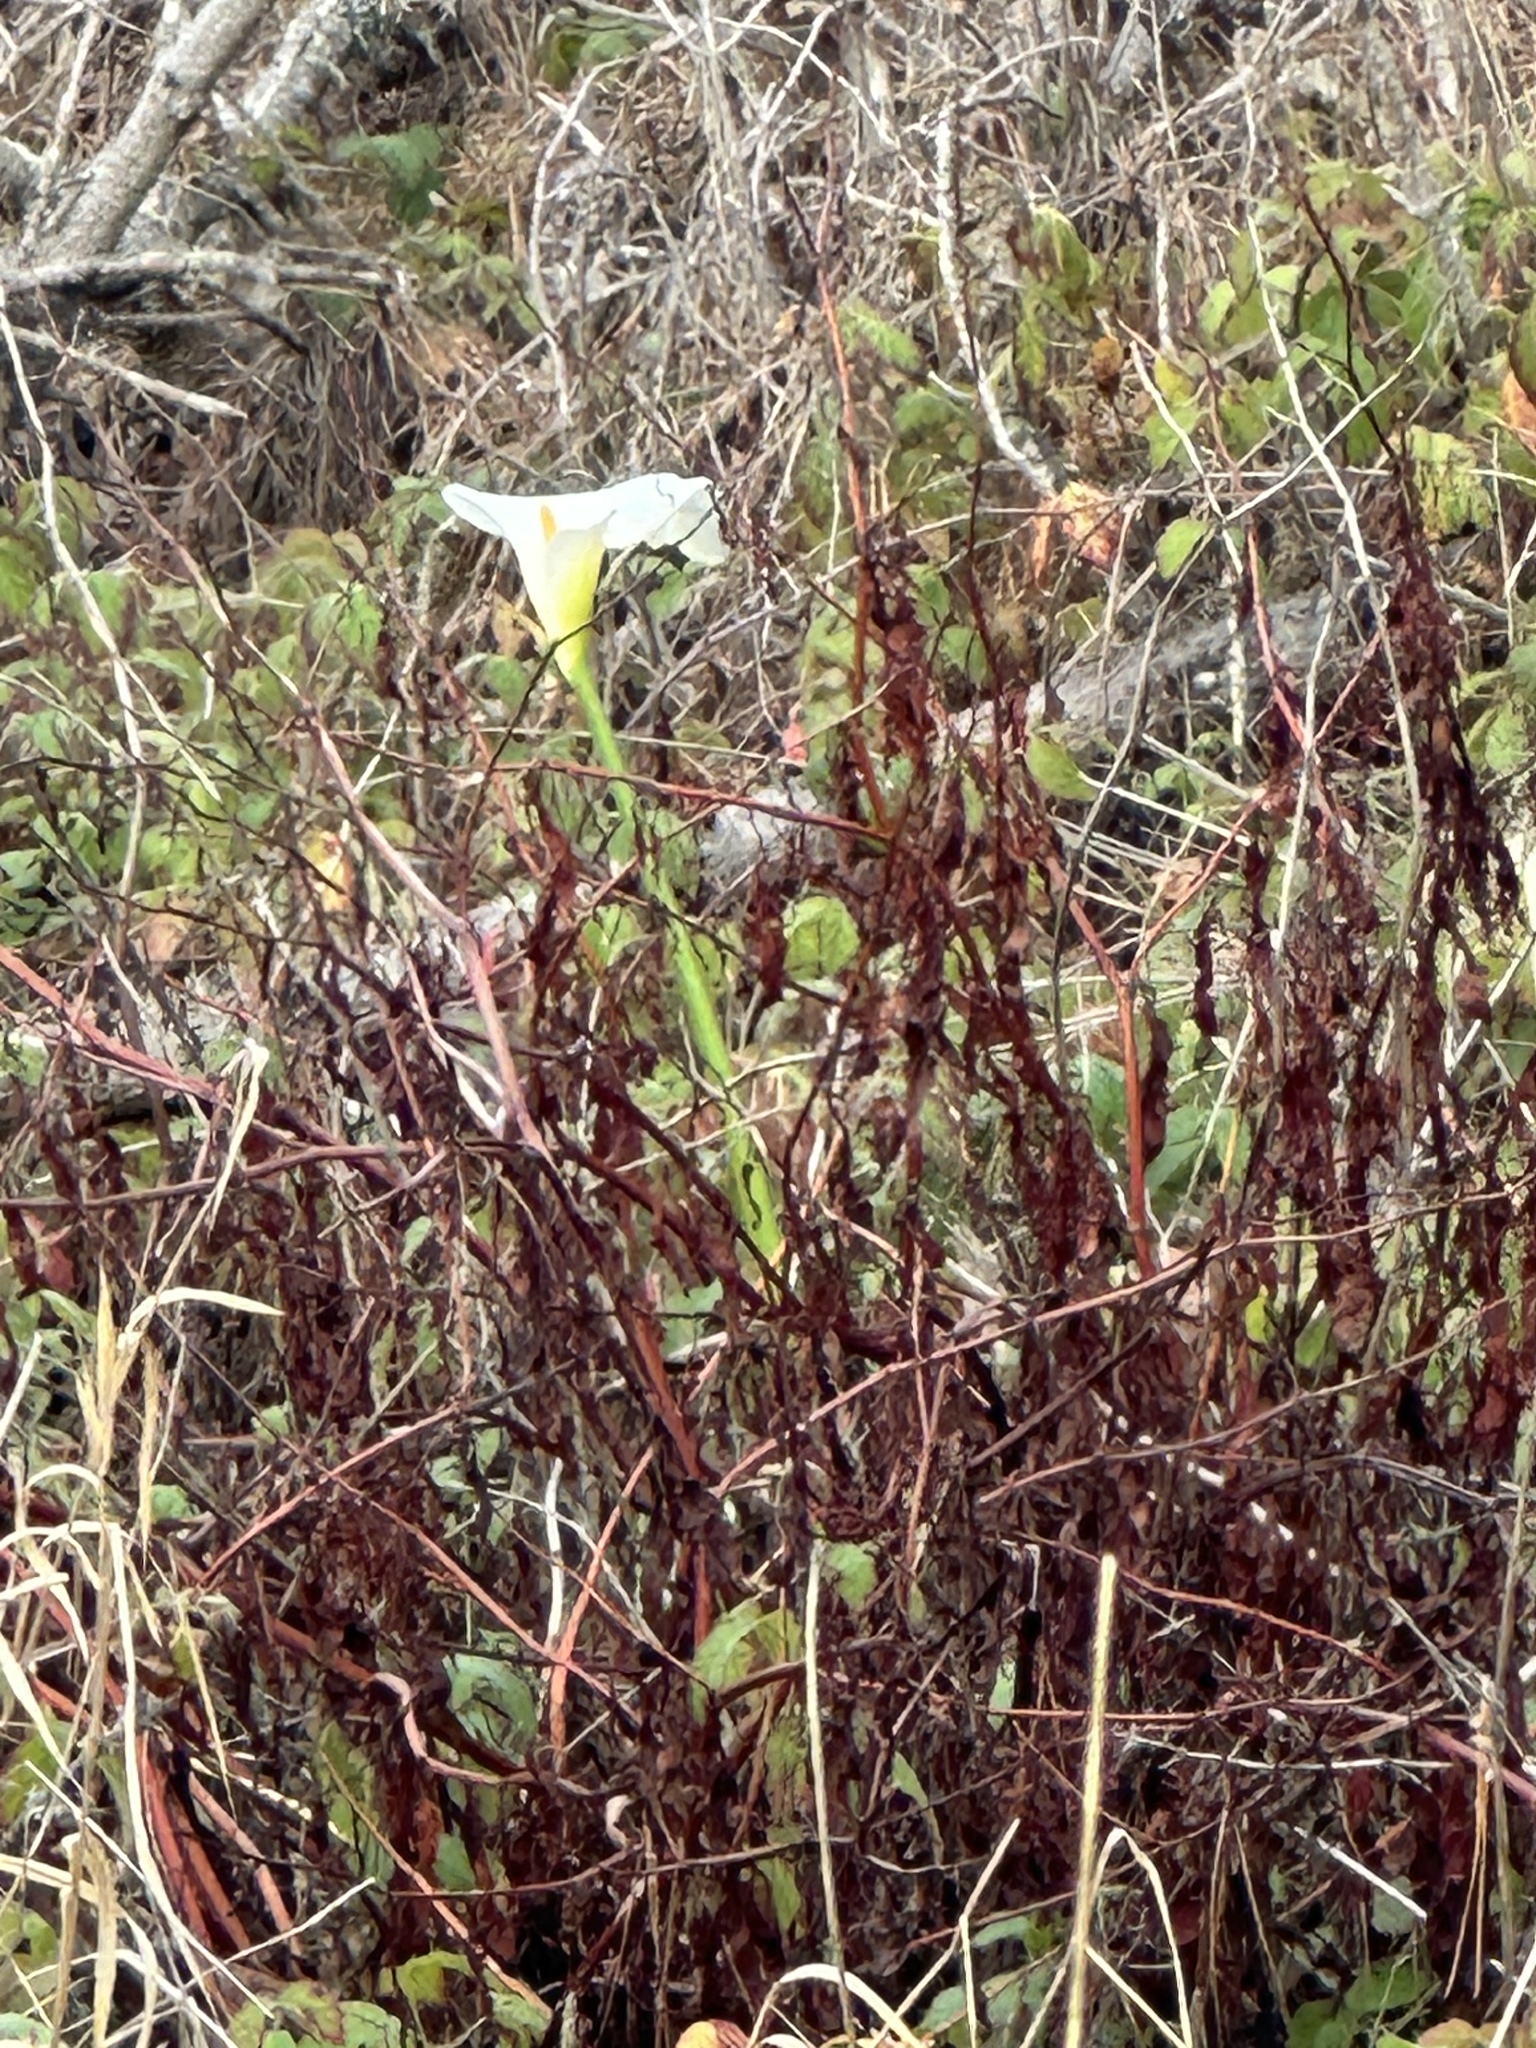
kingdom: Plantae
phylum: Tracheophyta
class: Liliopsida
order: Alismatales
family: Araceae
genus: Zantedeschia
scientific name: Zantedeschia aethiopica
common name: Altar-lily
